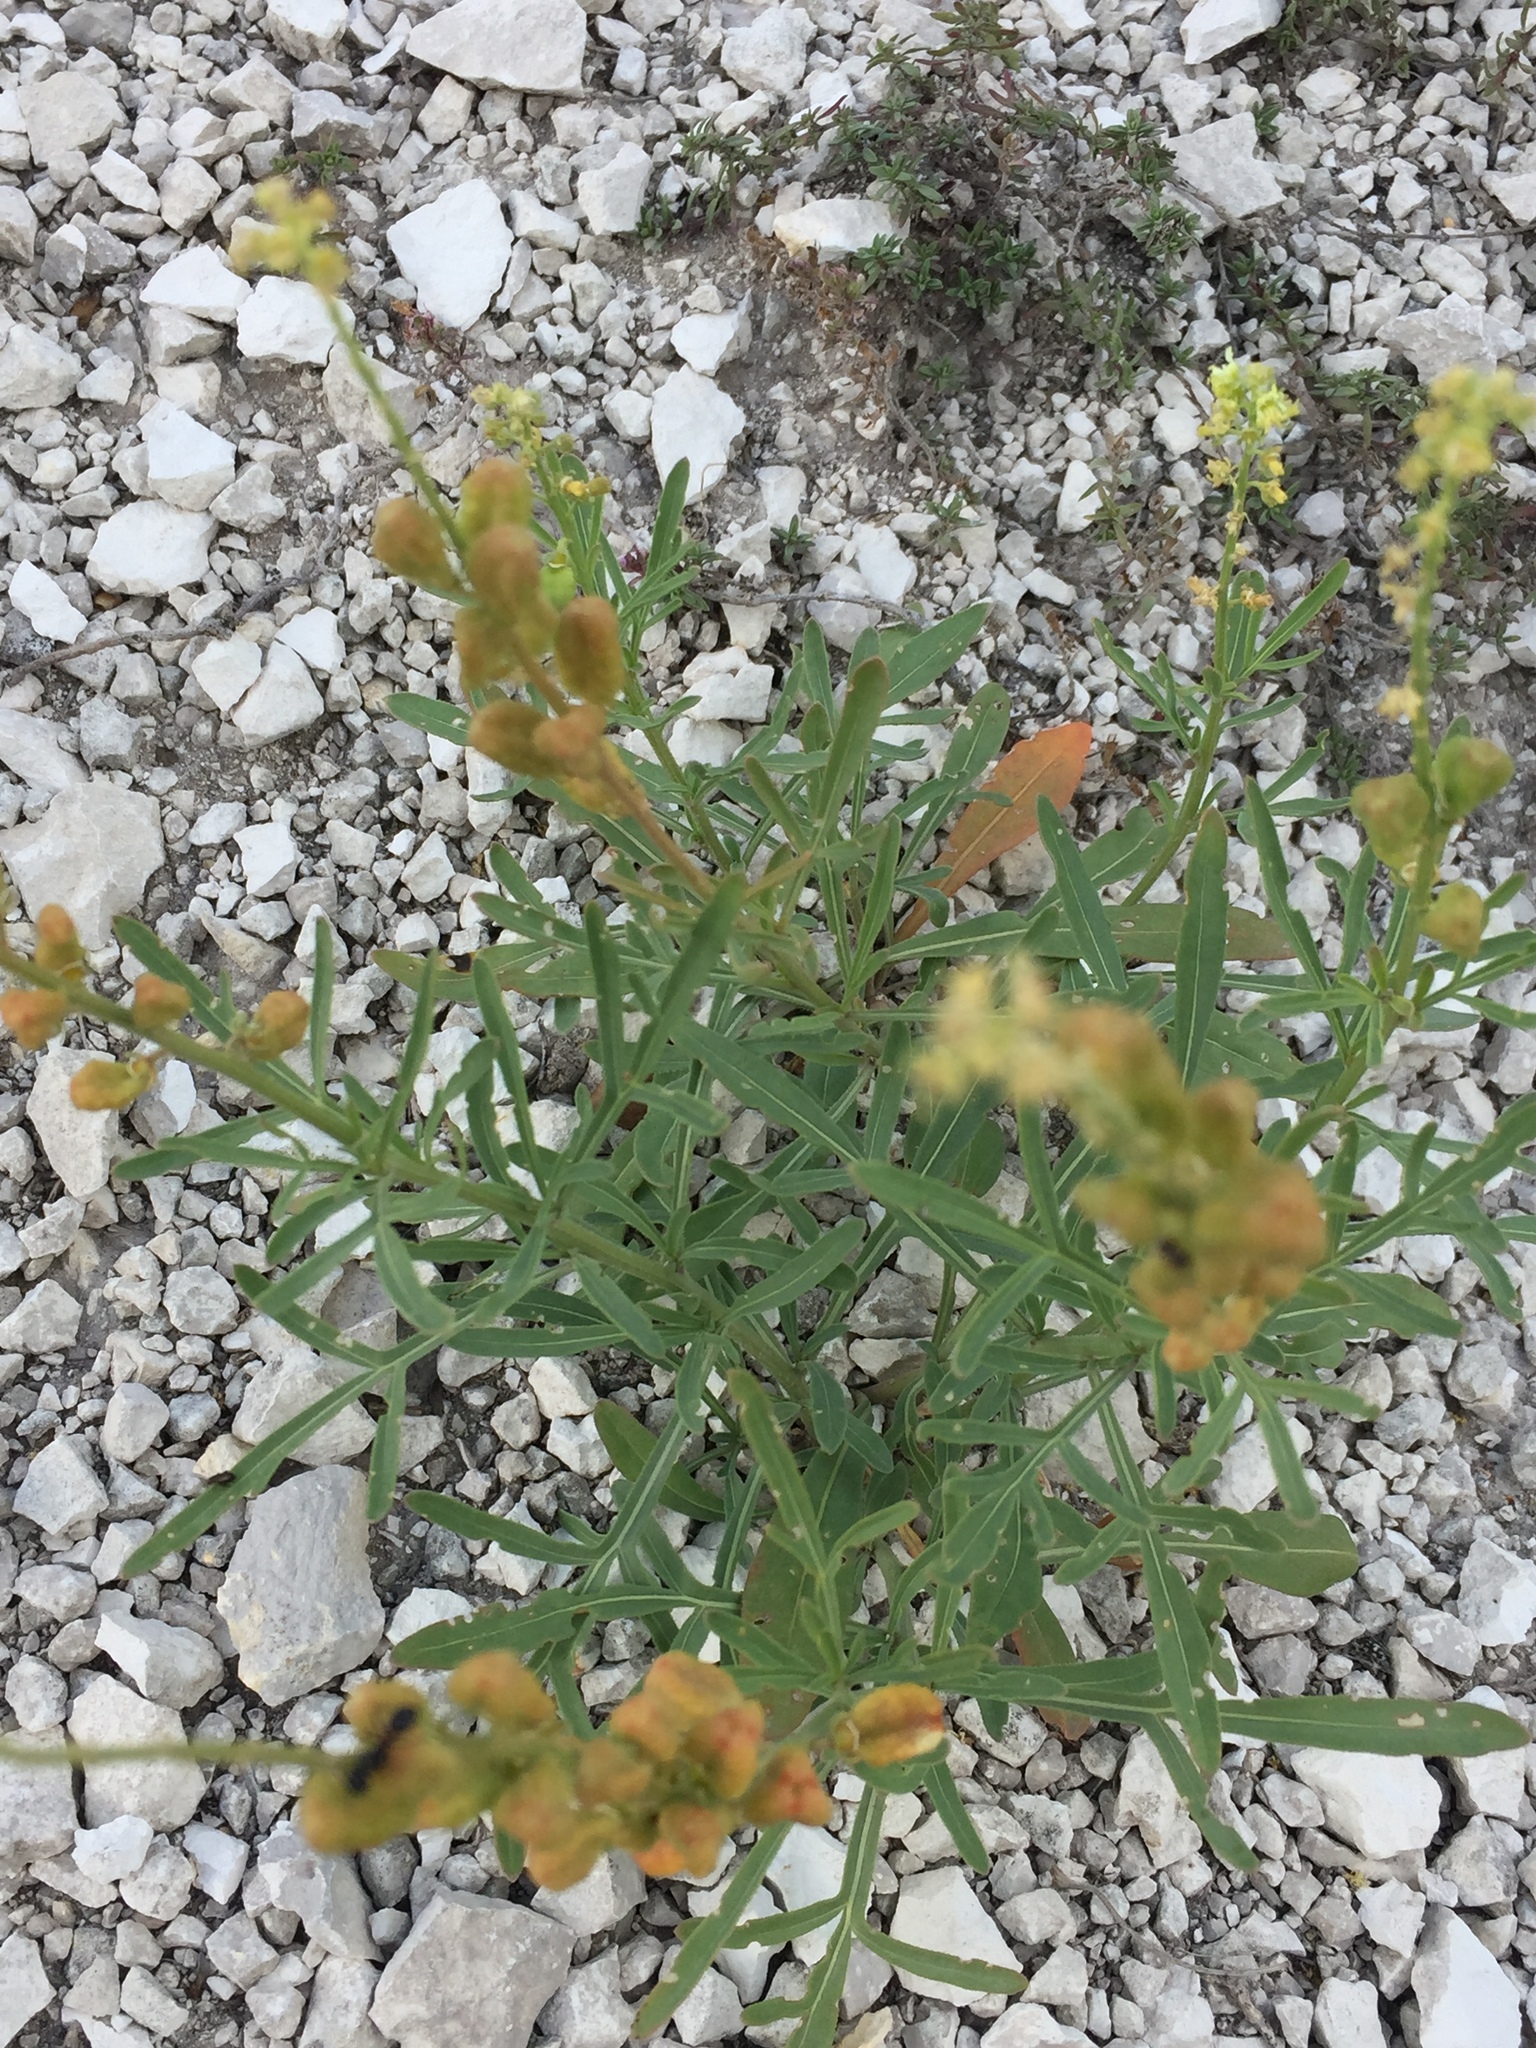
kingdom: Plantae
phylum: Tracheophyta
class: Magnoliopsida
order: Brassicales
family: Resedaceae
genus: Reseda
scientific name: Reseda lutea
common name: Wild mignonette
